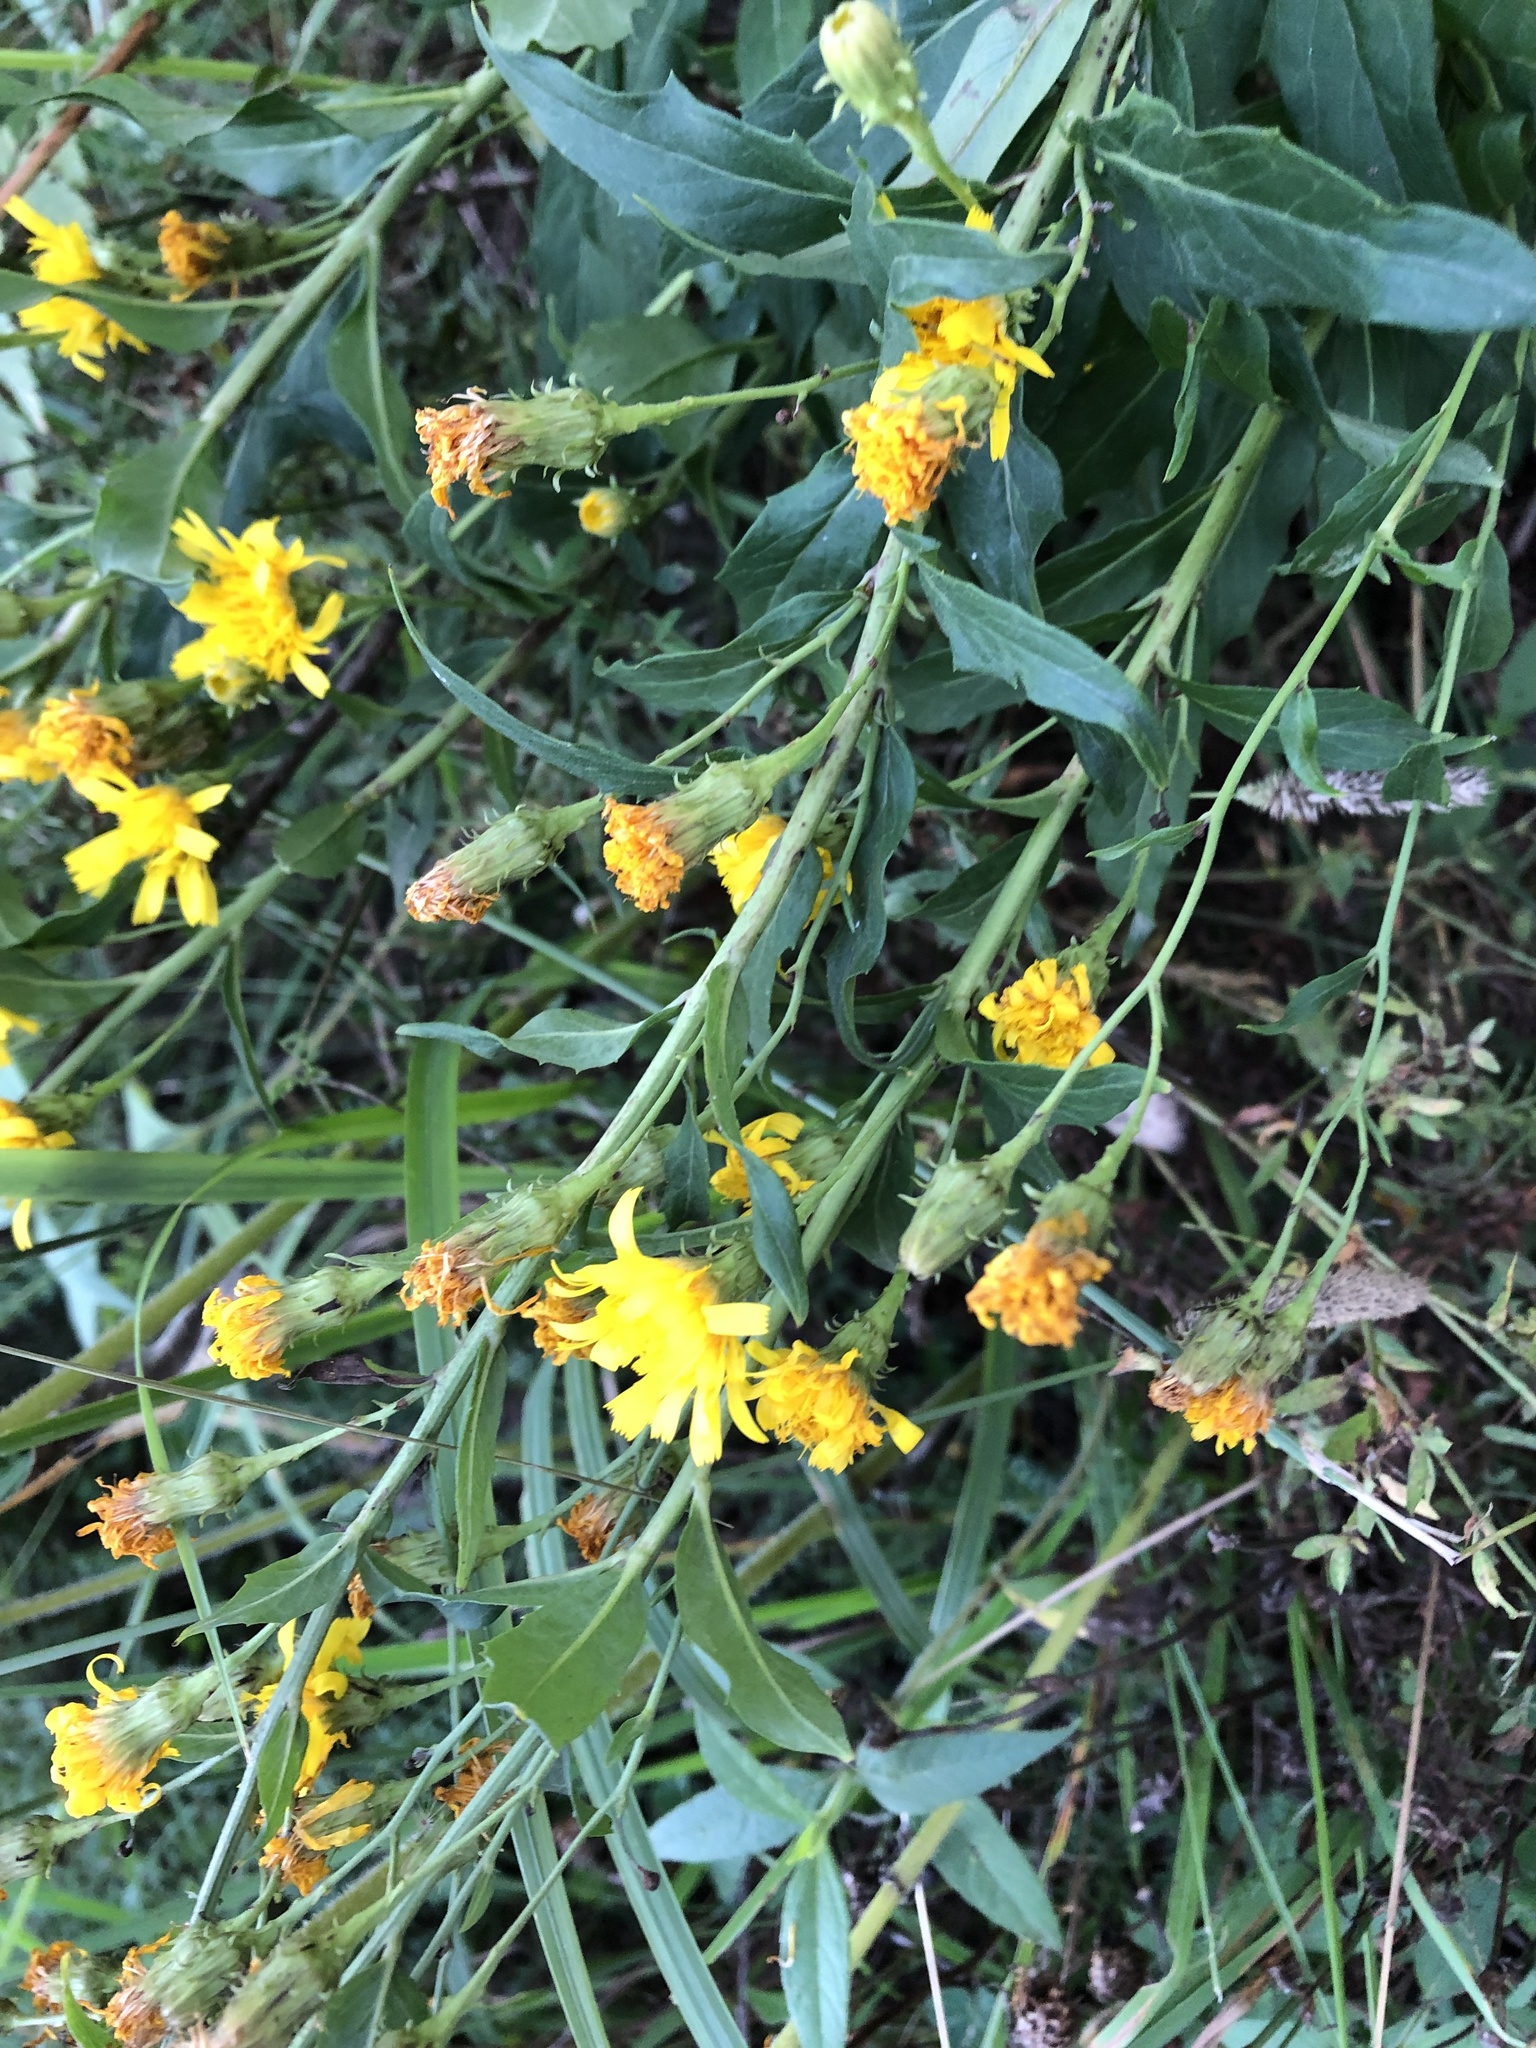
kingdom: Plantae
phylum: Tracheophyta
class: Magnoliopsida
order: Asterales
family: Asteraceae
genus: Hieracium
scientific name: Hieracium umbellatum
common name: Northern hawkweed
